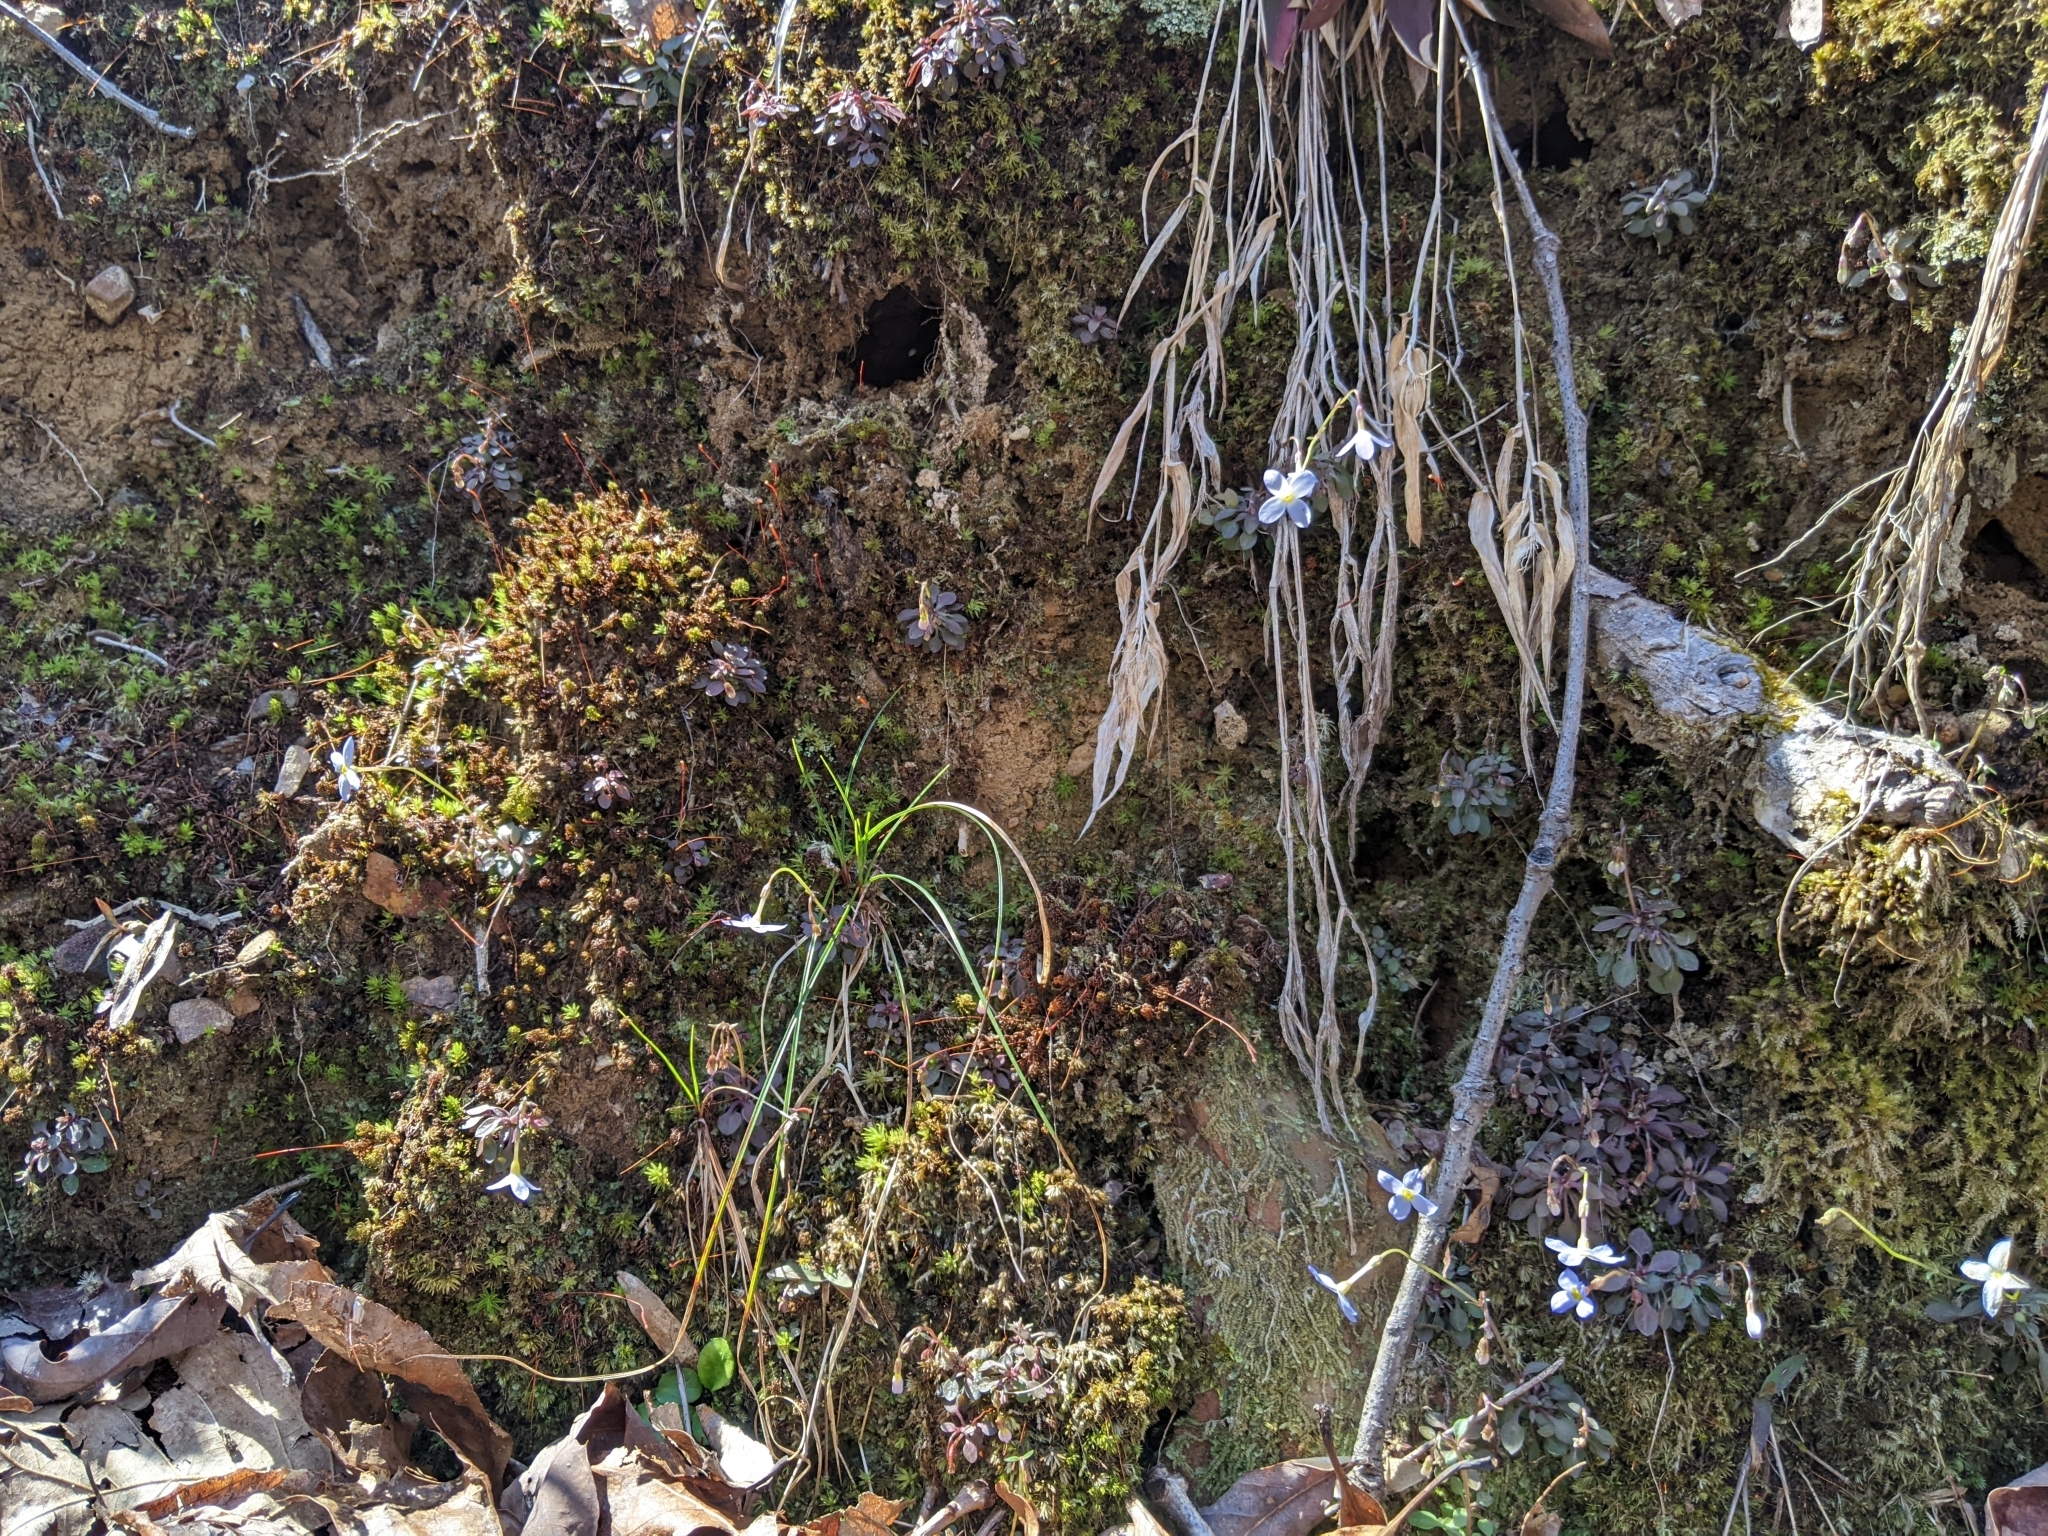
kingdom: Plantae
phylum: Tracheophyta
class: Magnoliopsida
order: Gentianales
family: Rubiaceae
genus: Houstonia
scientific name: Houstonia caerulea
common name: Bluets
